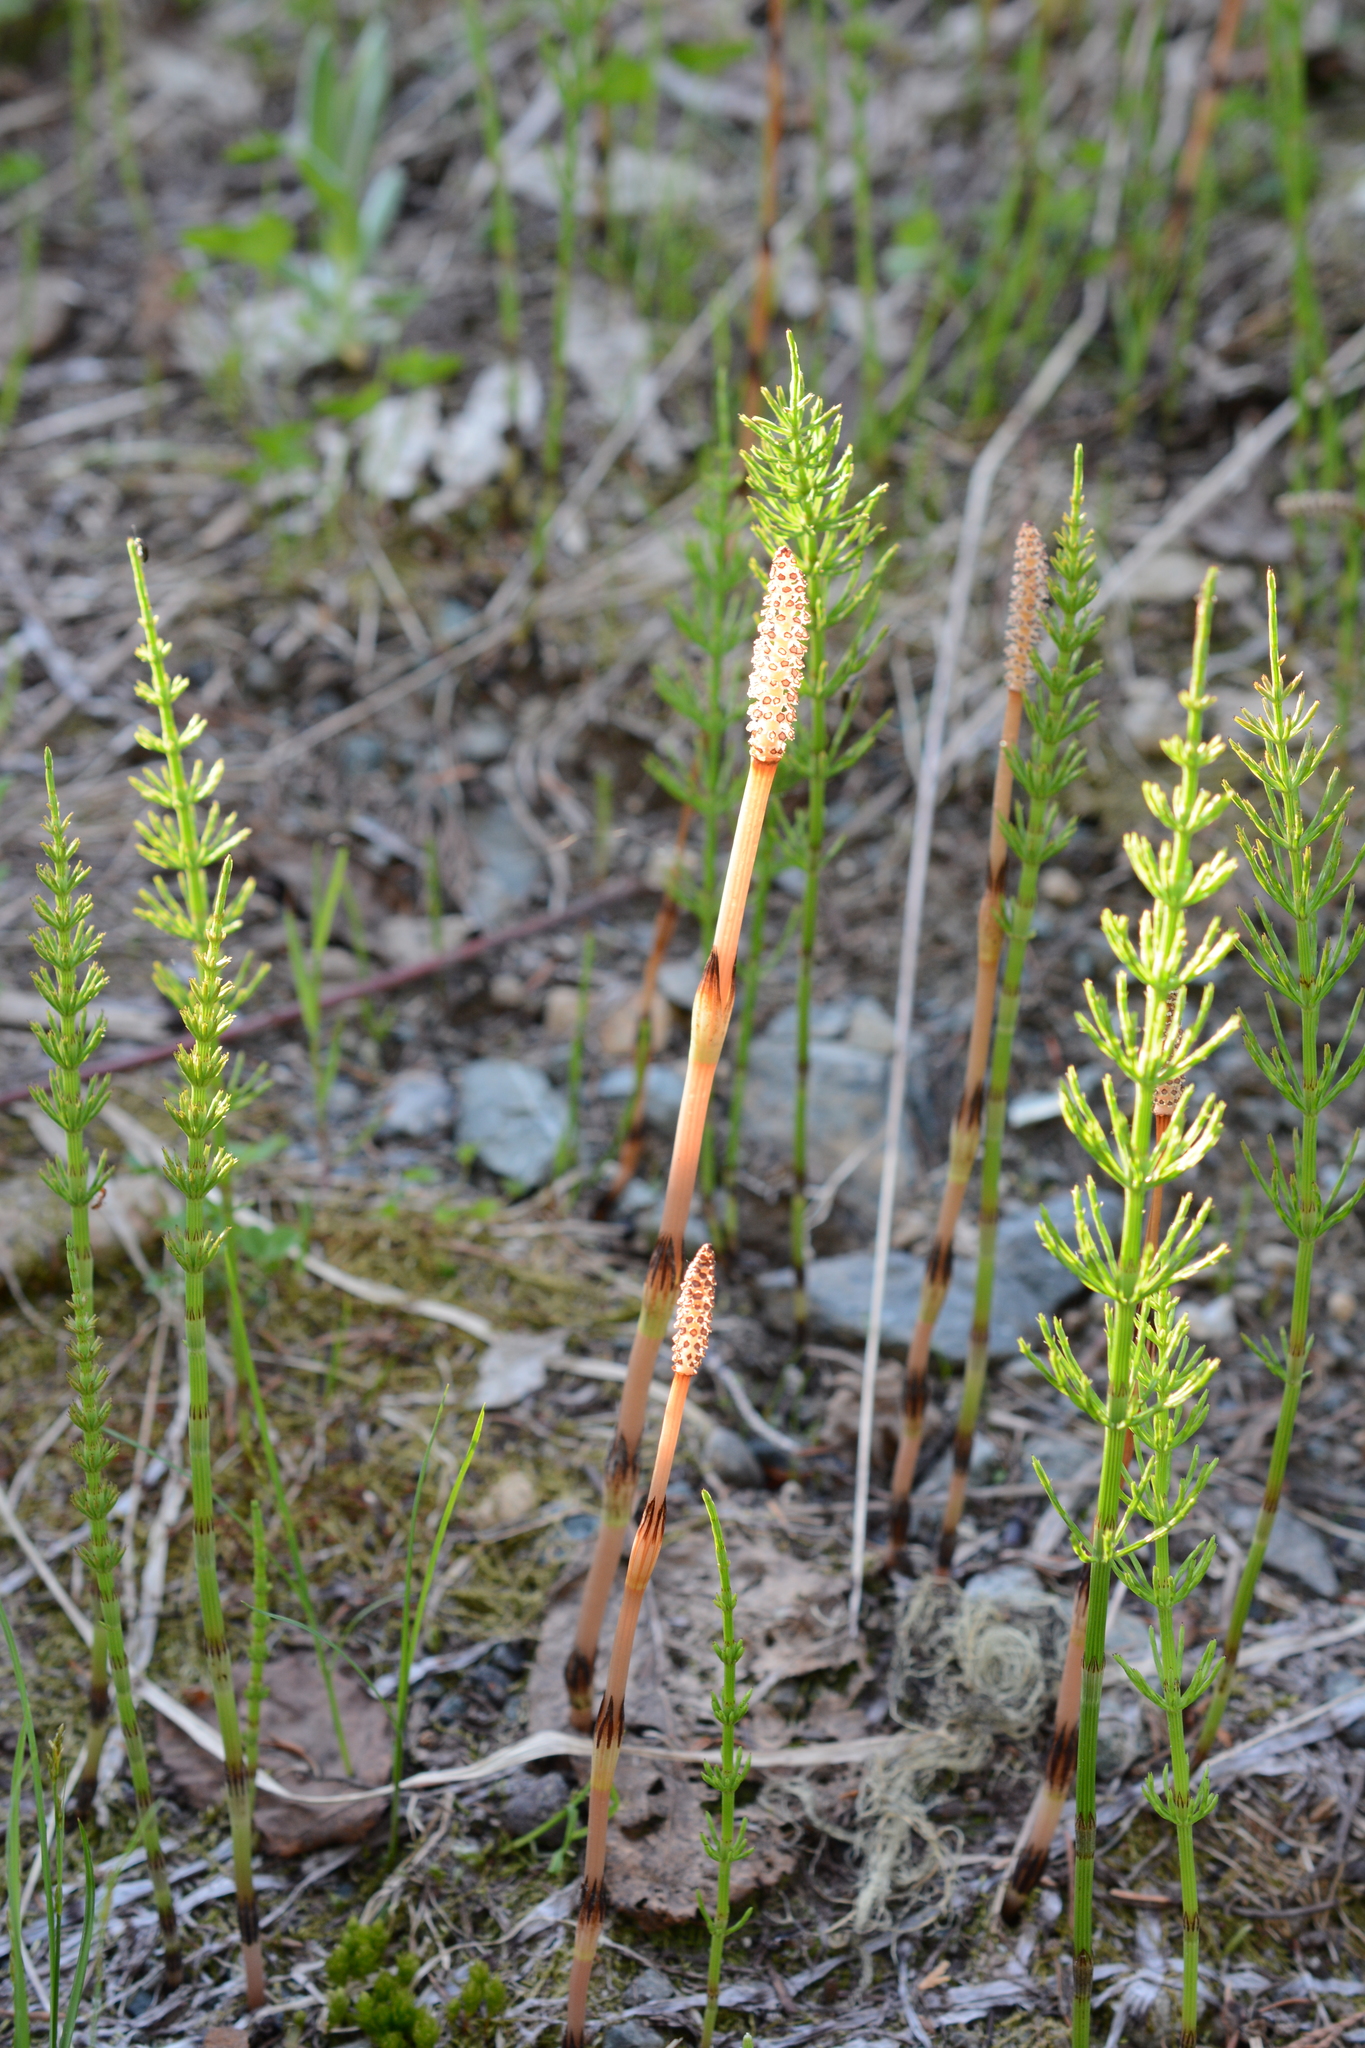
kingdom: Plantae
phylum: Tracheophyta
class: Polypodiopsida
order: Equisetales
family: Equisetaceae
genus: Equisetum
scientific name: Equisetum arvense
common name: Field horsetail
